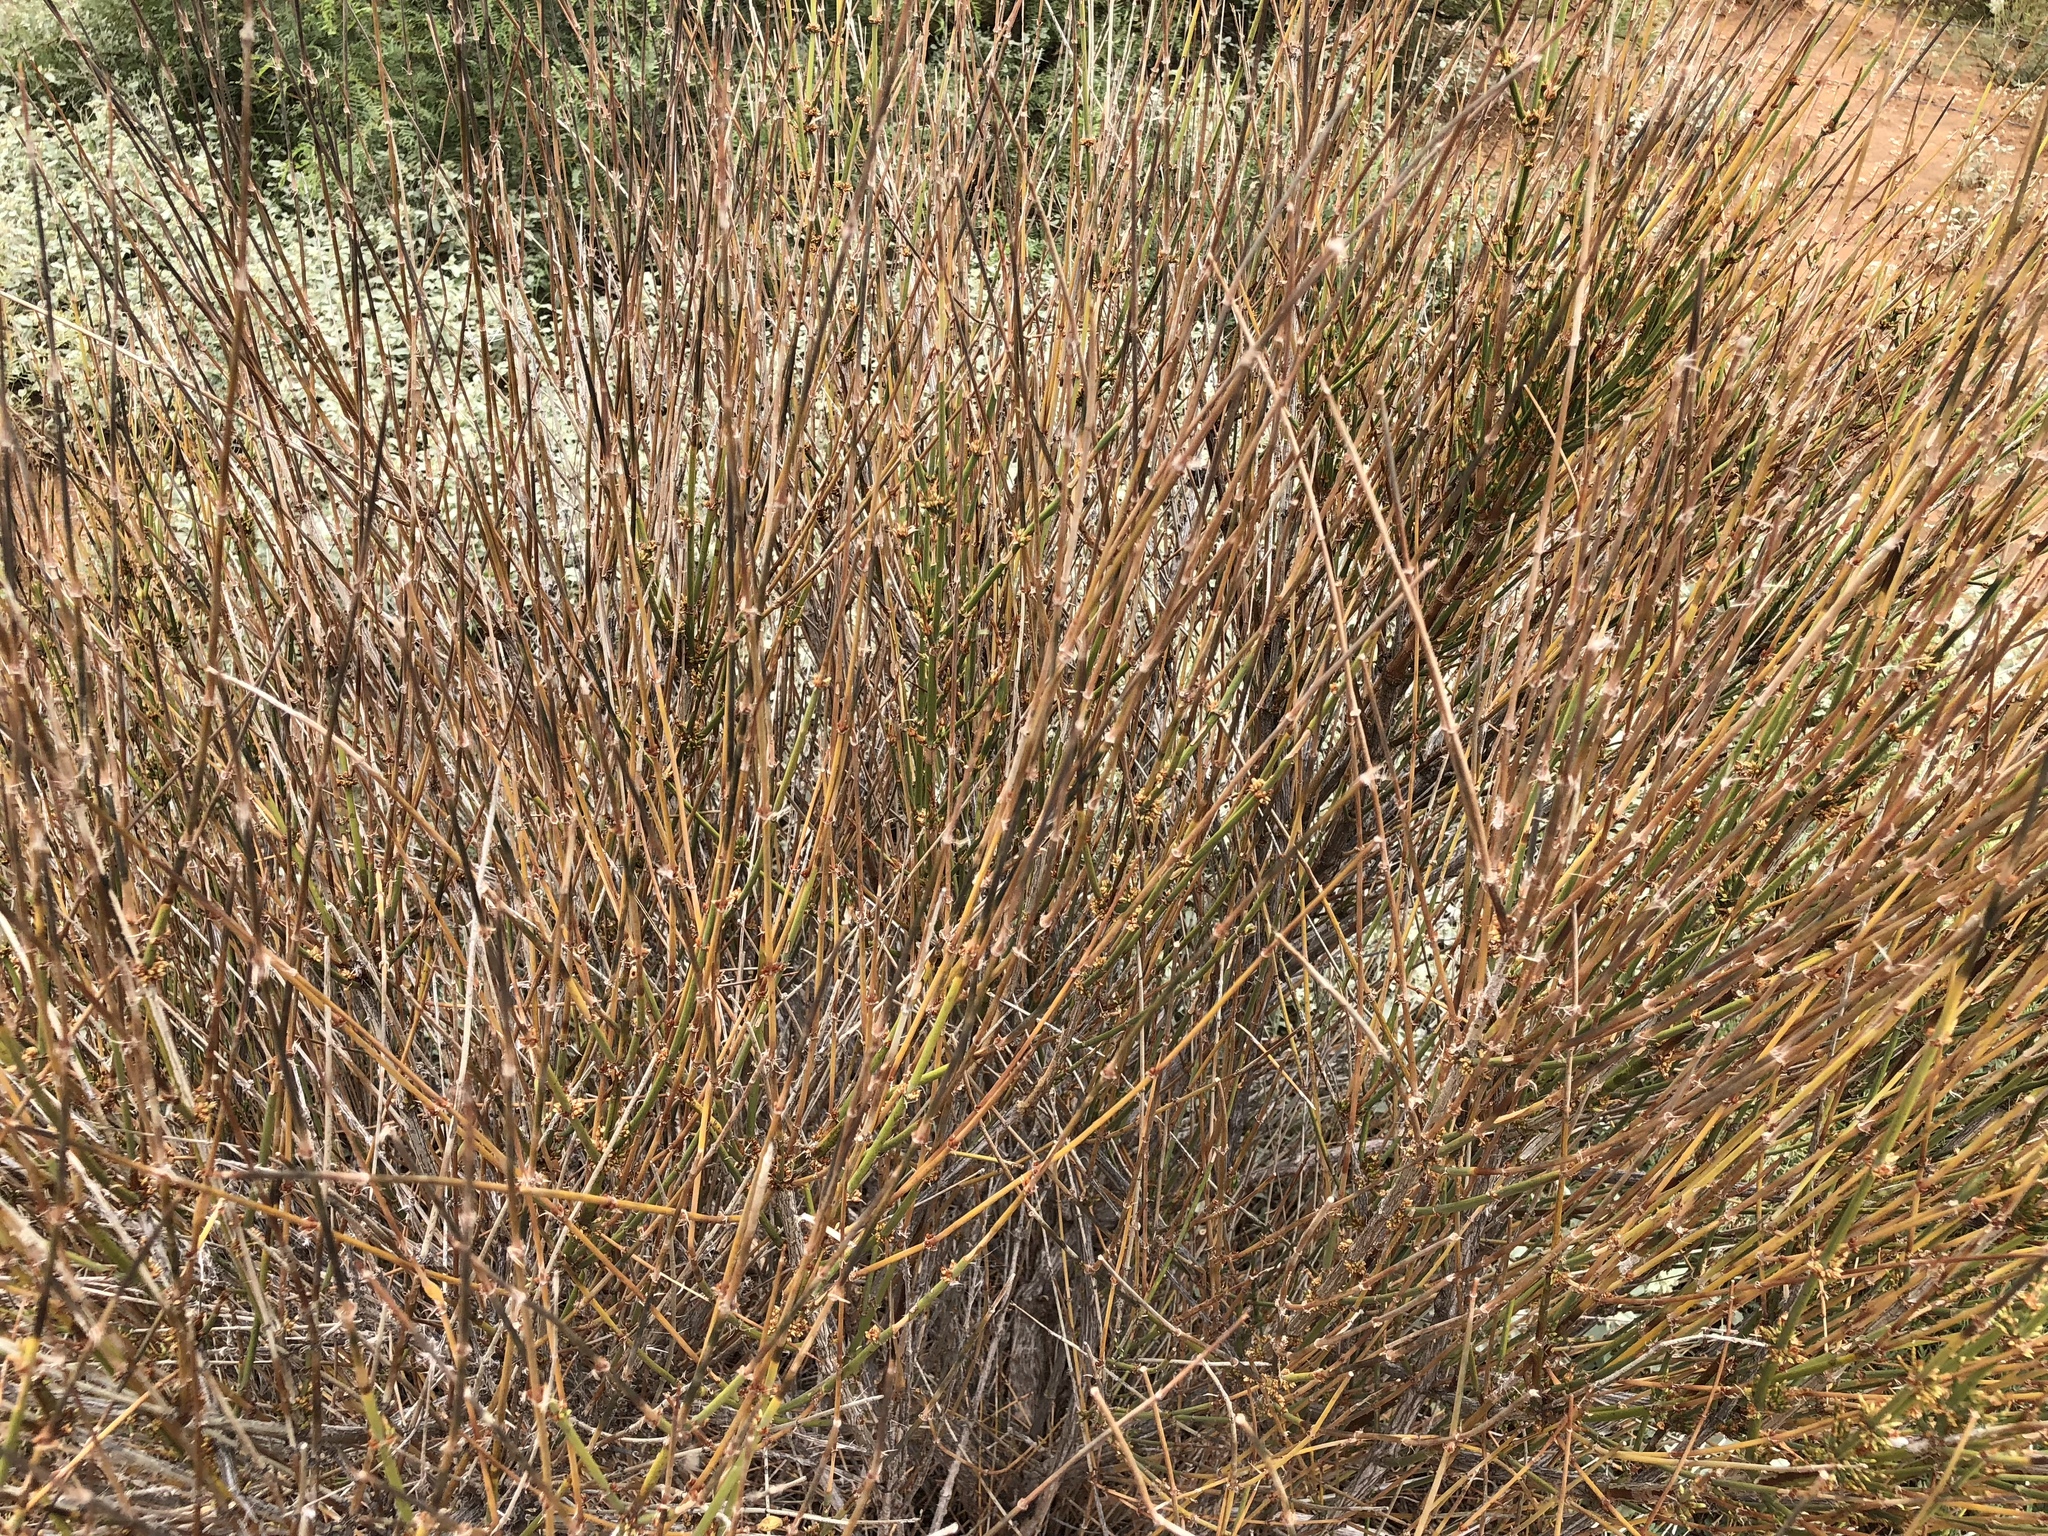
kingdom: Plantae
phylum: Tracheophyta
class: Gnetopsida
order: Ephedrales
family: Ephedraceae
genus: Ephedra
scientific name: Ephedra trifurca
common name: Mexican-tea
